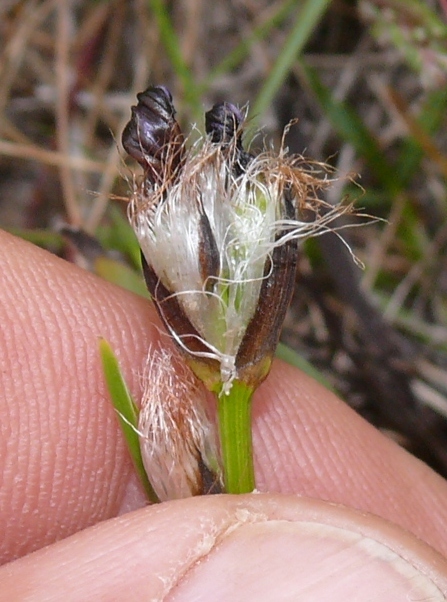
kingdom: Plantae
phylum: Tracheophyta
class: Liliopsida
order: Asparagales
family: Iridaceae
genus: Aristea
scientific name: Aristea africana
